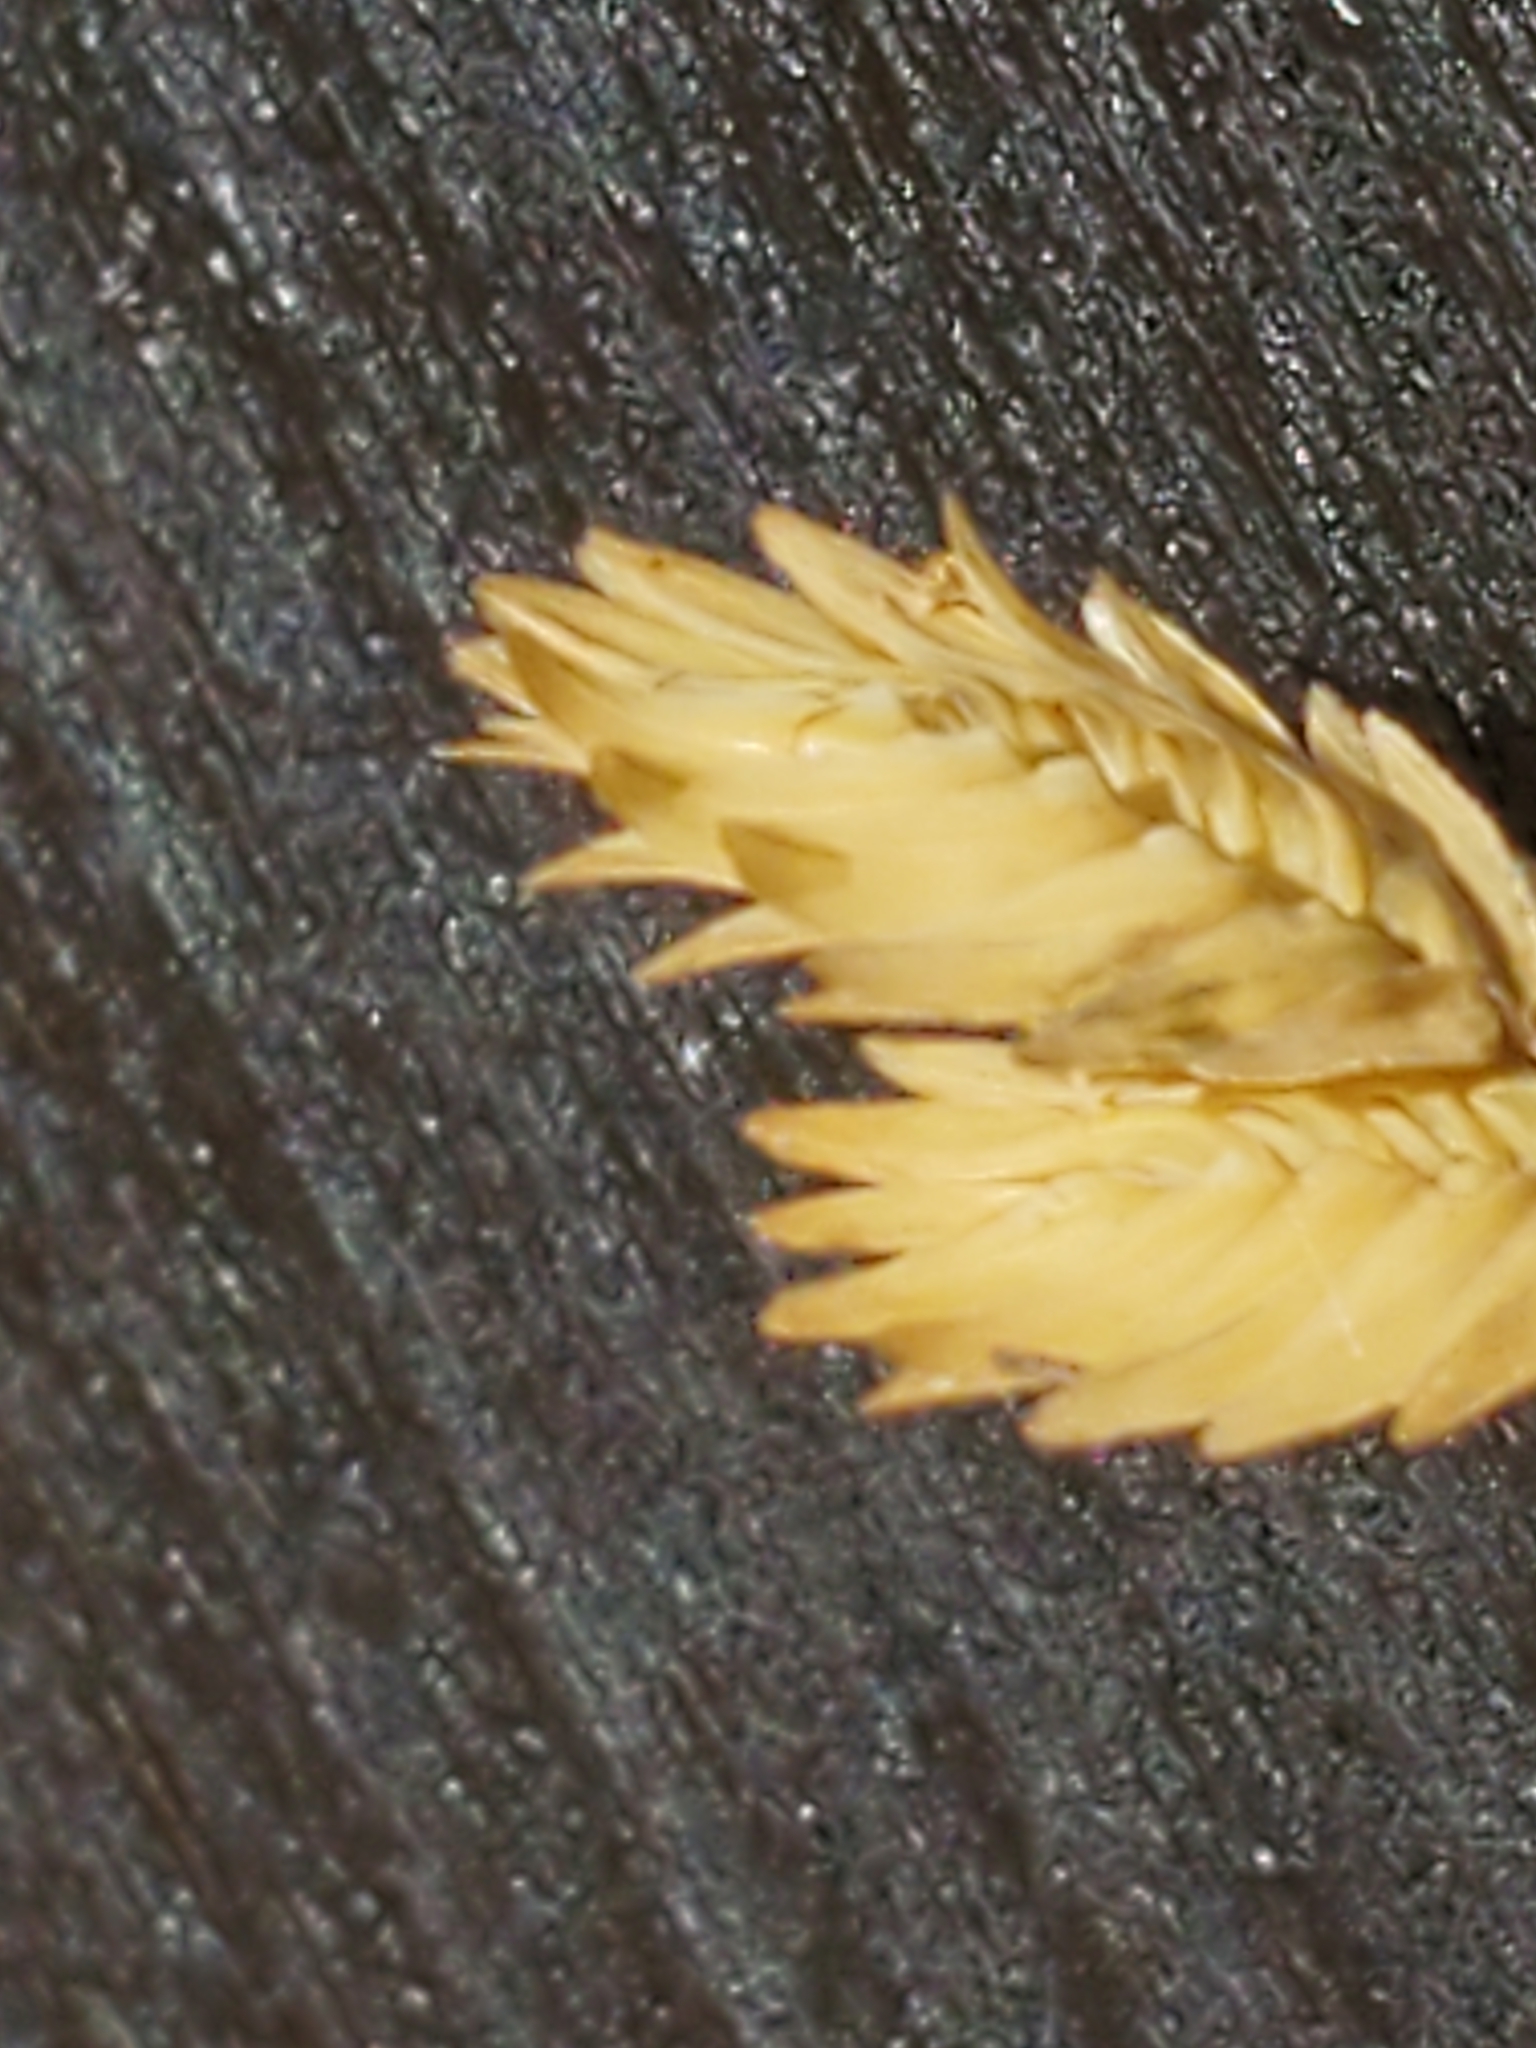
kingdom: Plantae
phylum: Tracheophyta
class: Liliopsida
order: Poales
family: Poaceae
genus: Eragrostis
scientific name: Eragrostis superba
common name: Wilman lovegrass
